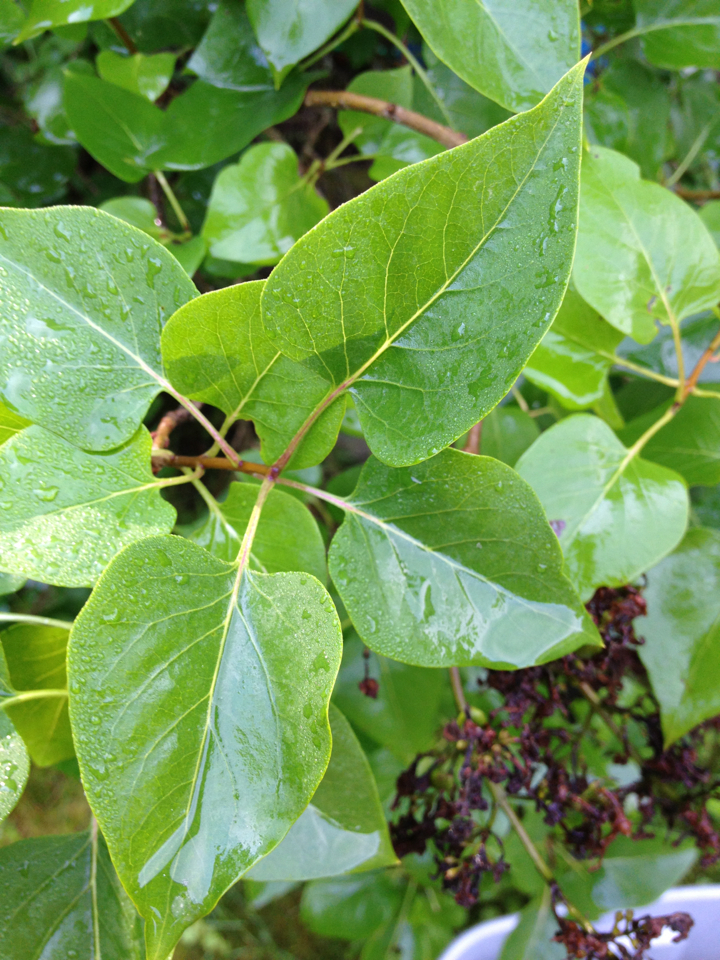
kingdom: Plantae
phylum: Tracheophyta
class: Magnoliopsida
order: Lamiales
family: Oleaceae
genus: Syringa
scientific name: Syringa vulgaris
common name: Common lilac
